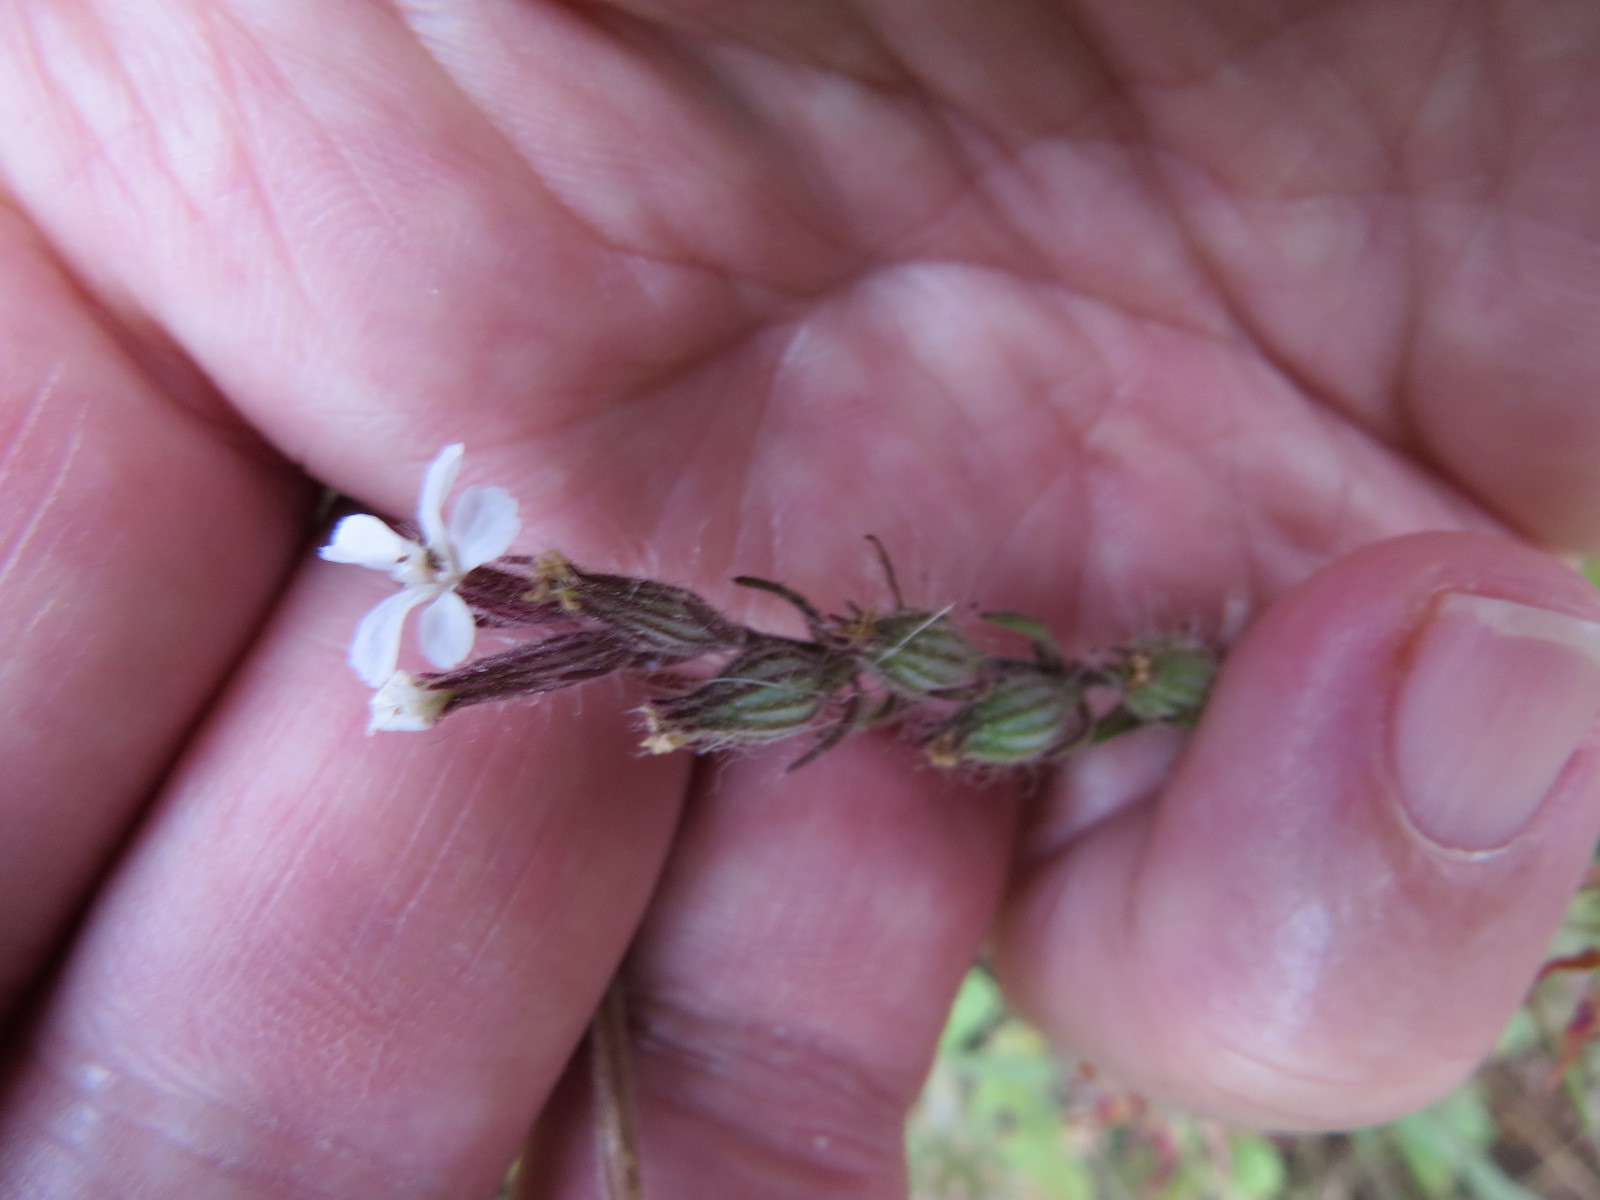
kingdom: Plantae
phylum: Tracheophyta
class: Magnoliopsida
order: Caryophyllales
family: Caryophyllaceae
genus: Silene
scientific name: Silene gallica
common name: Small-flowered catchfly
